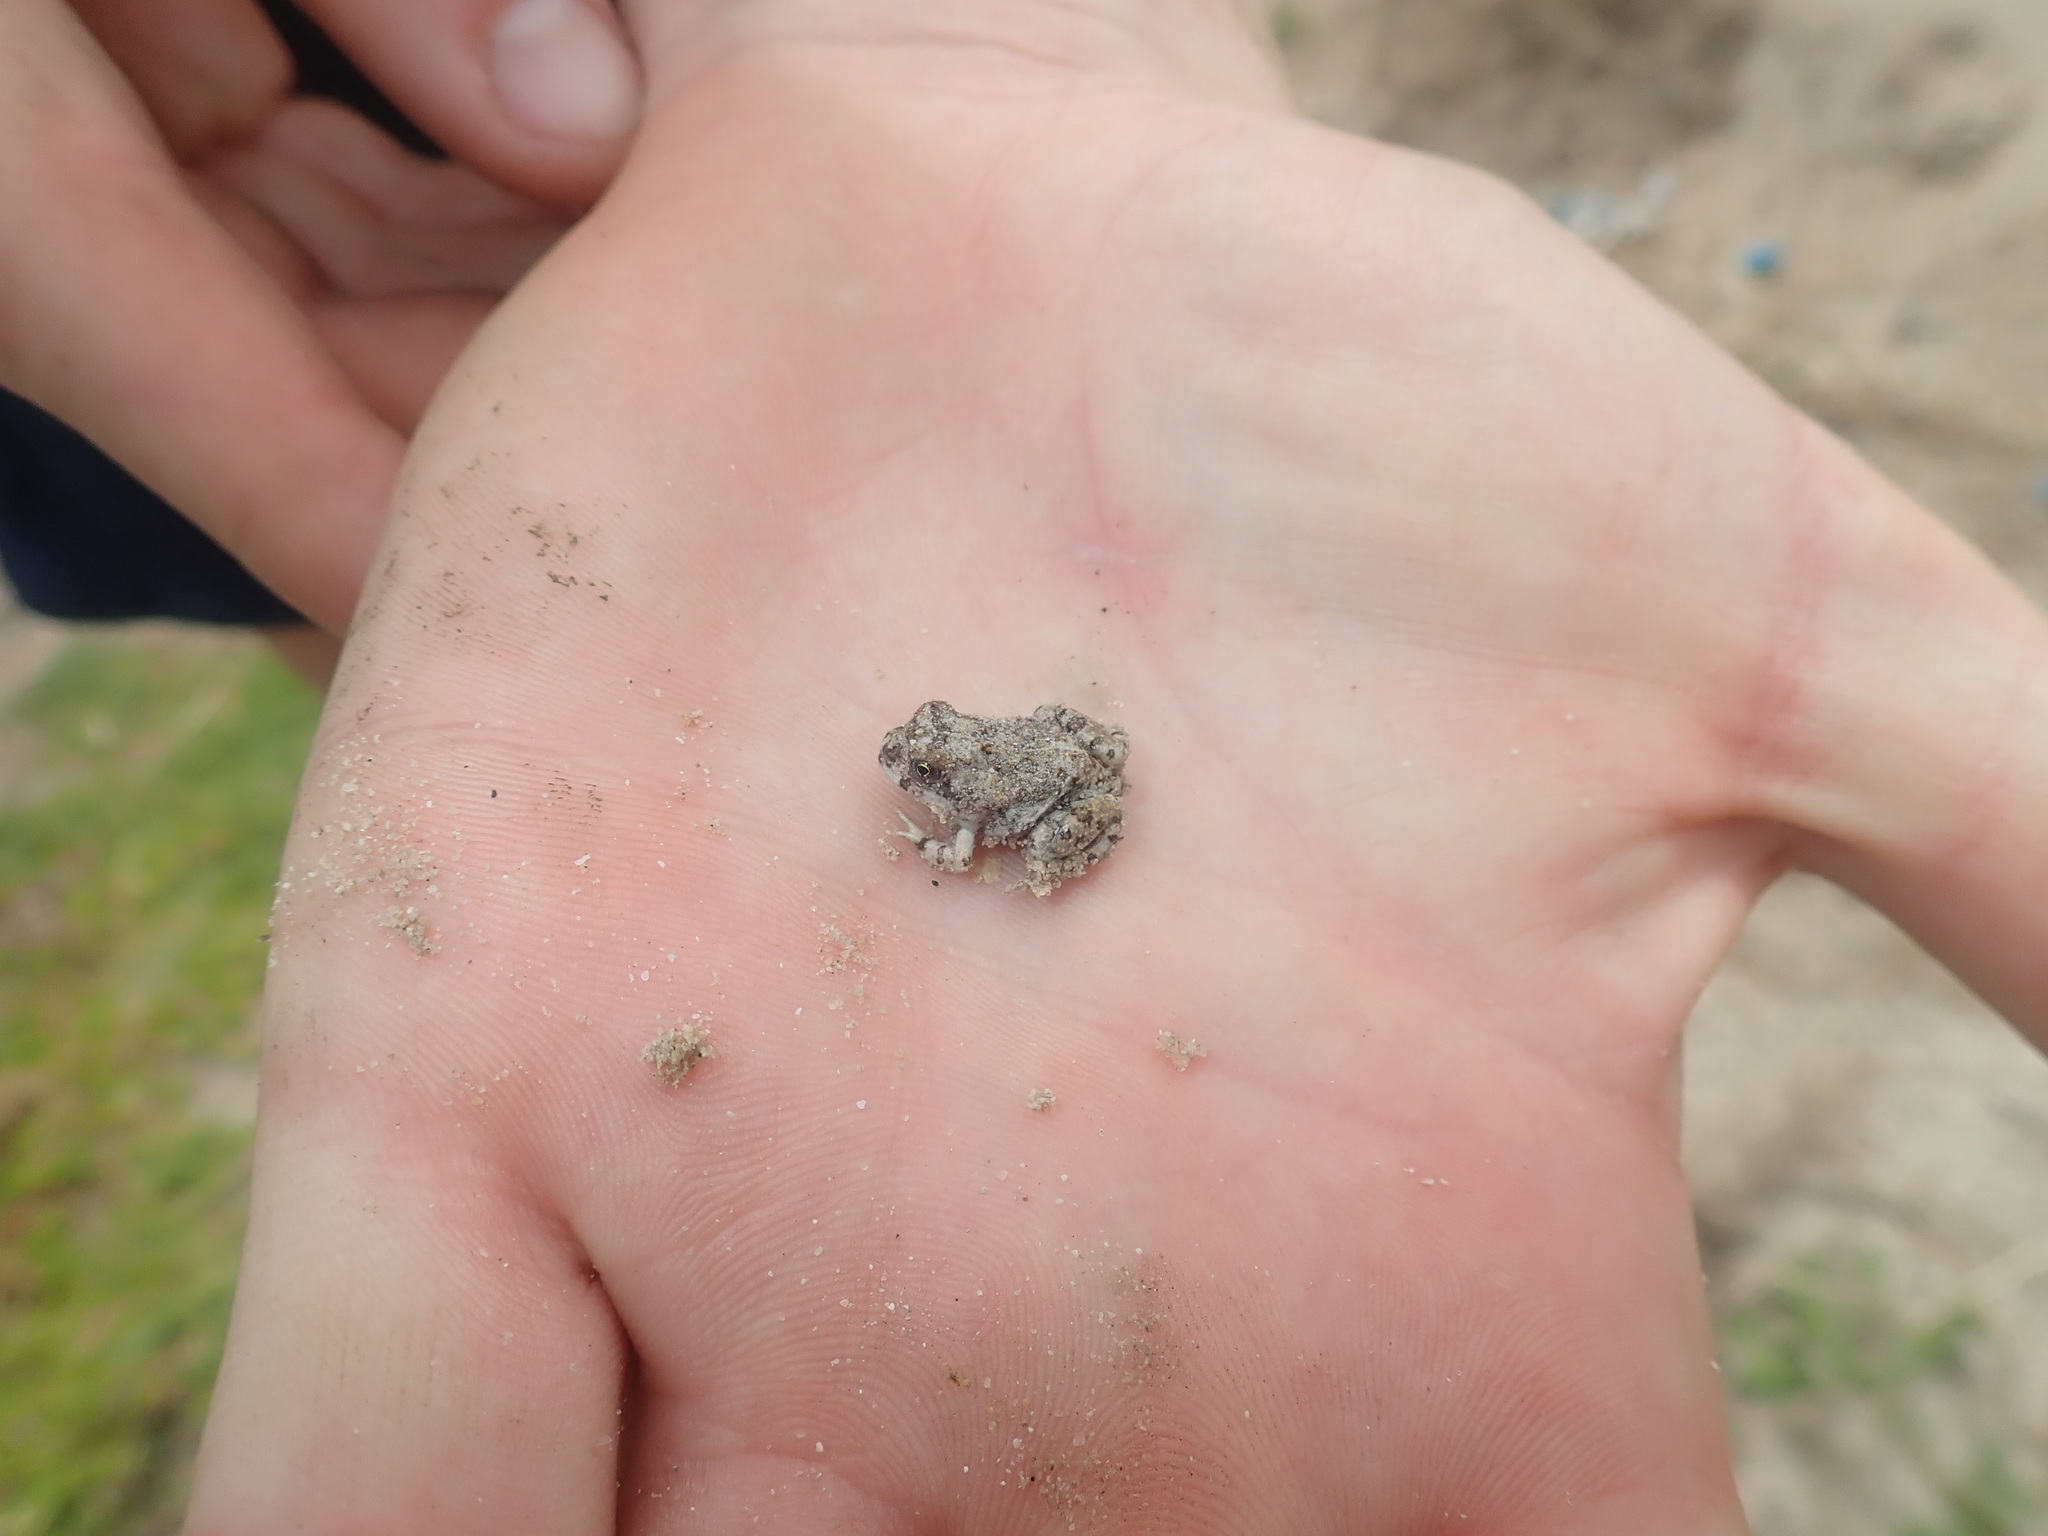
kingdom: Animalia
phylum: Chordata
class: Amphibia
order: Anura
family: Pyxicephalidae
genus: Tomopterna
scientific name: Tomopterna delalandii
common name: Delalande's burrowing bullfrog
